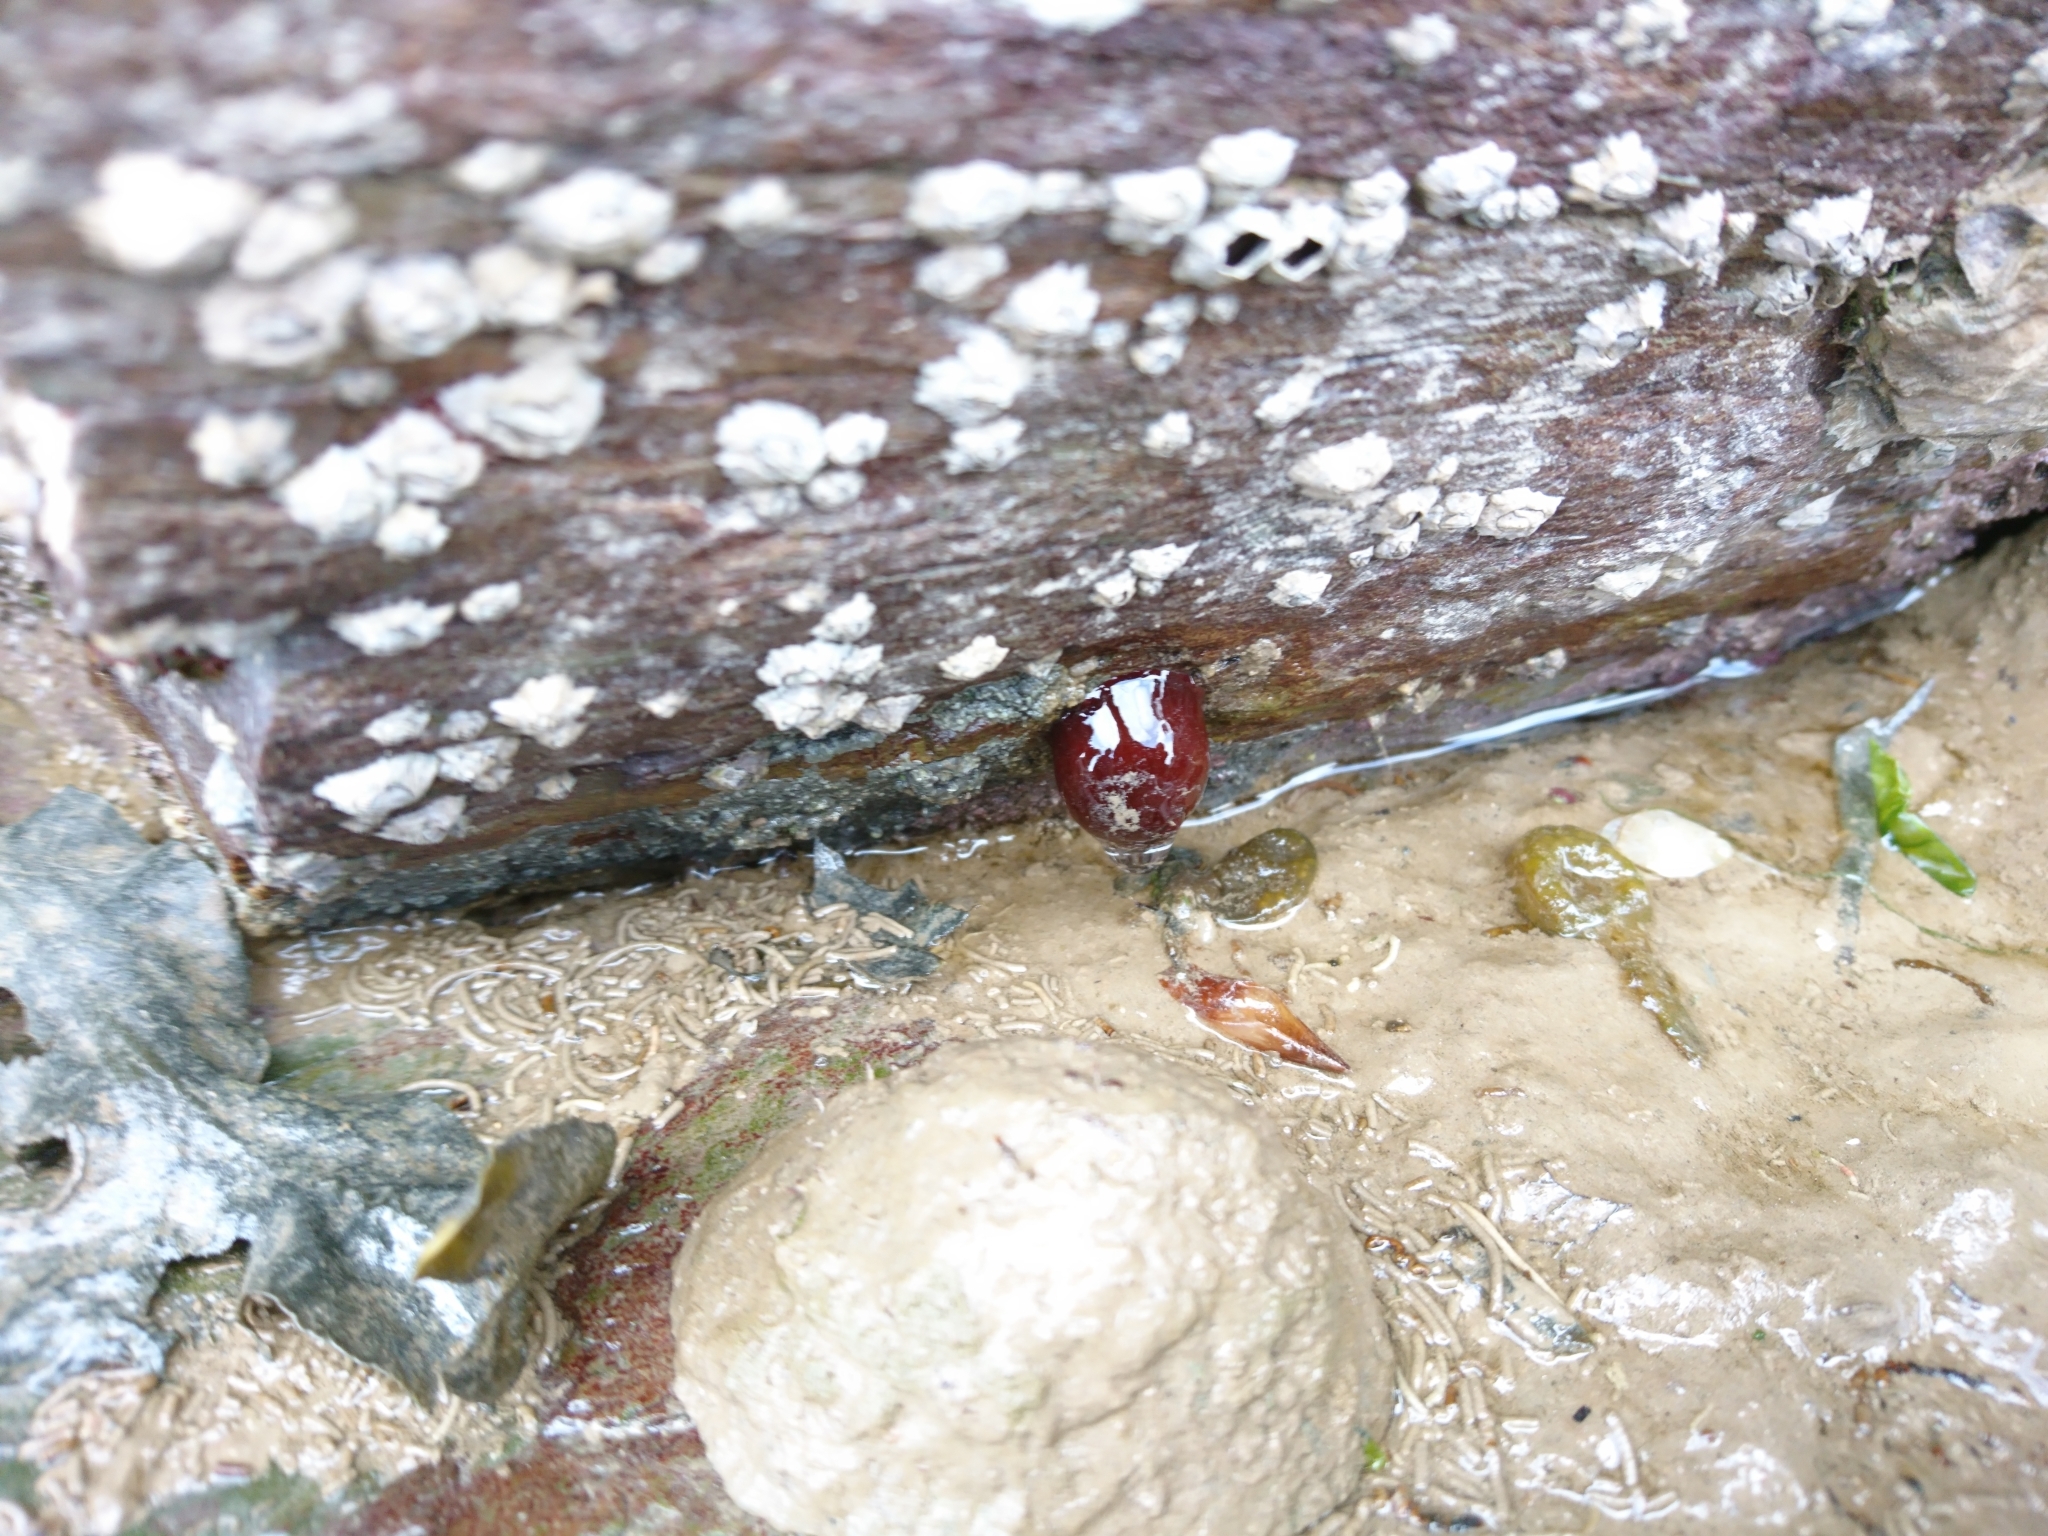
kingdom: Animalia
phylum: Cnidaria
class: Anthozoa
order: Actiniaria
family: Actiniidae
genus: Actinia
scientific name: Actinia equina
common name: Beadlet anemone
